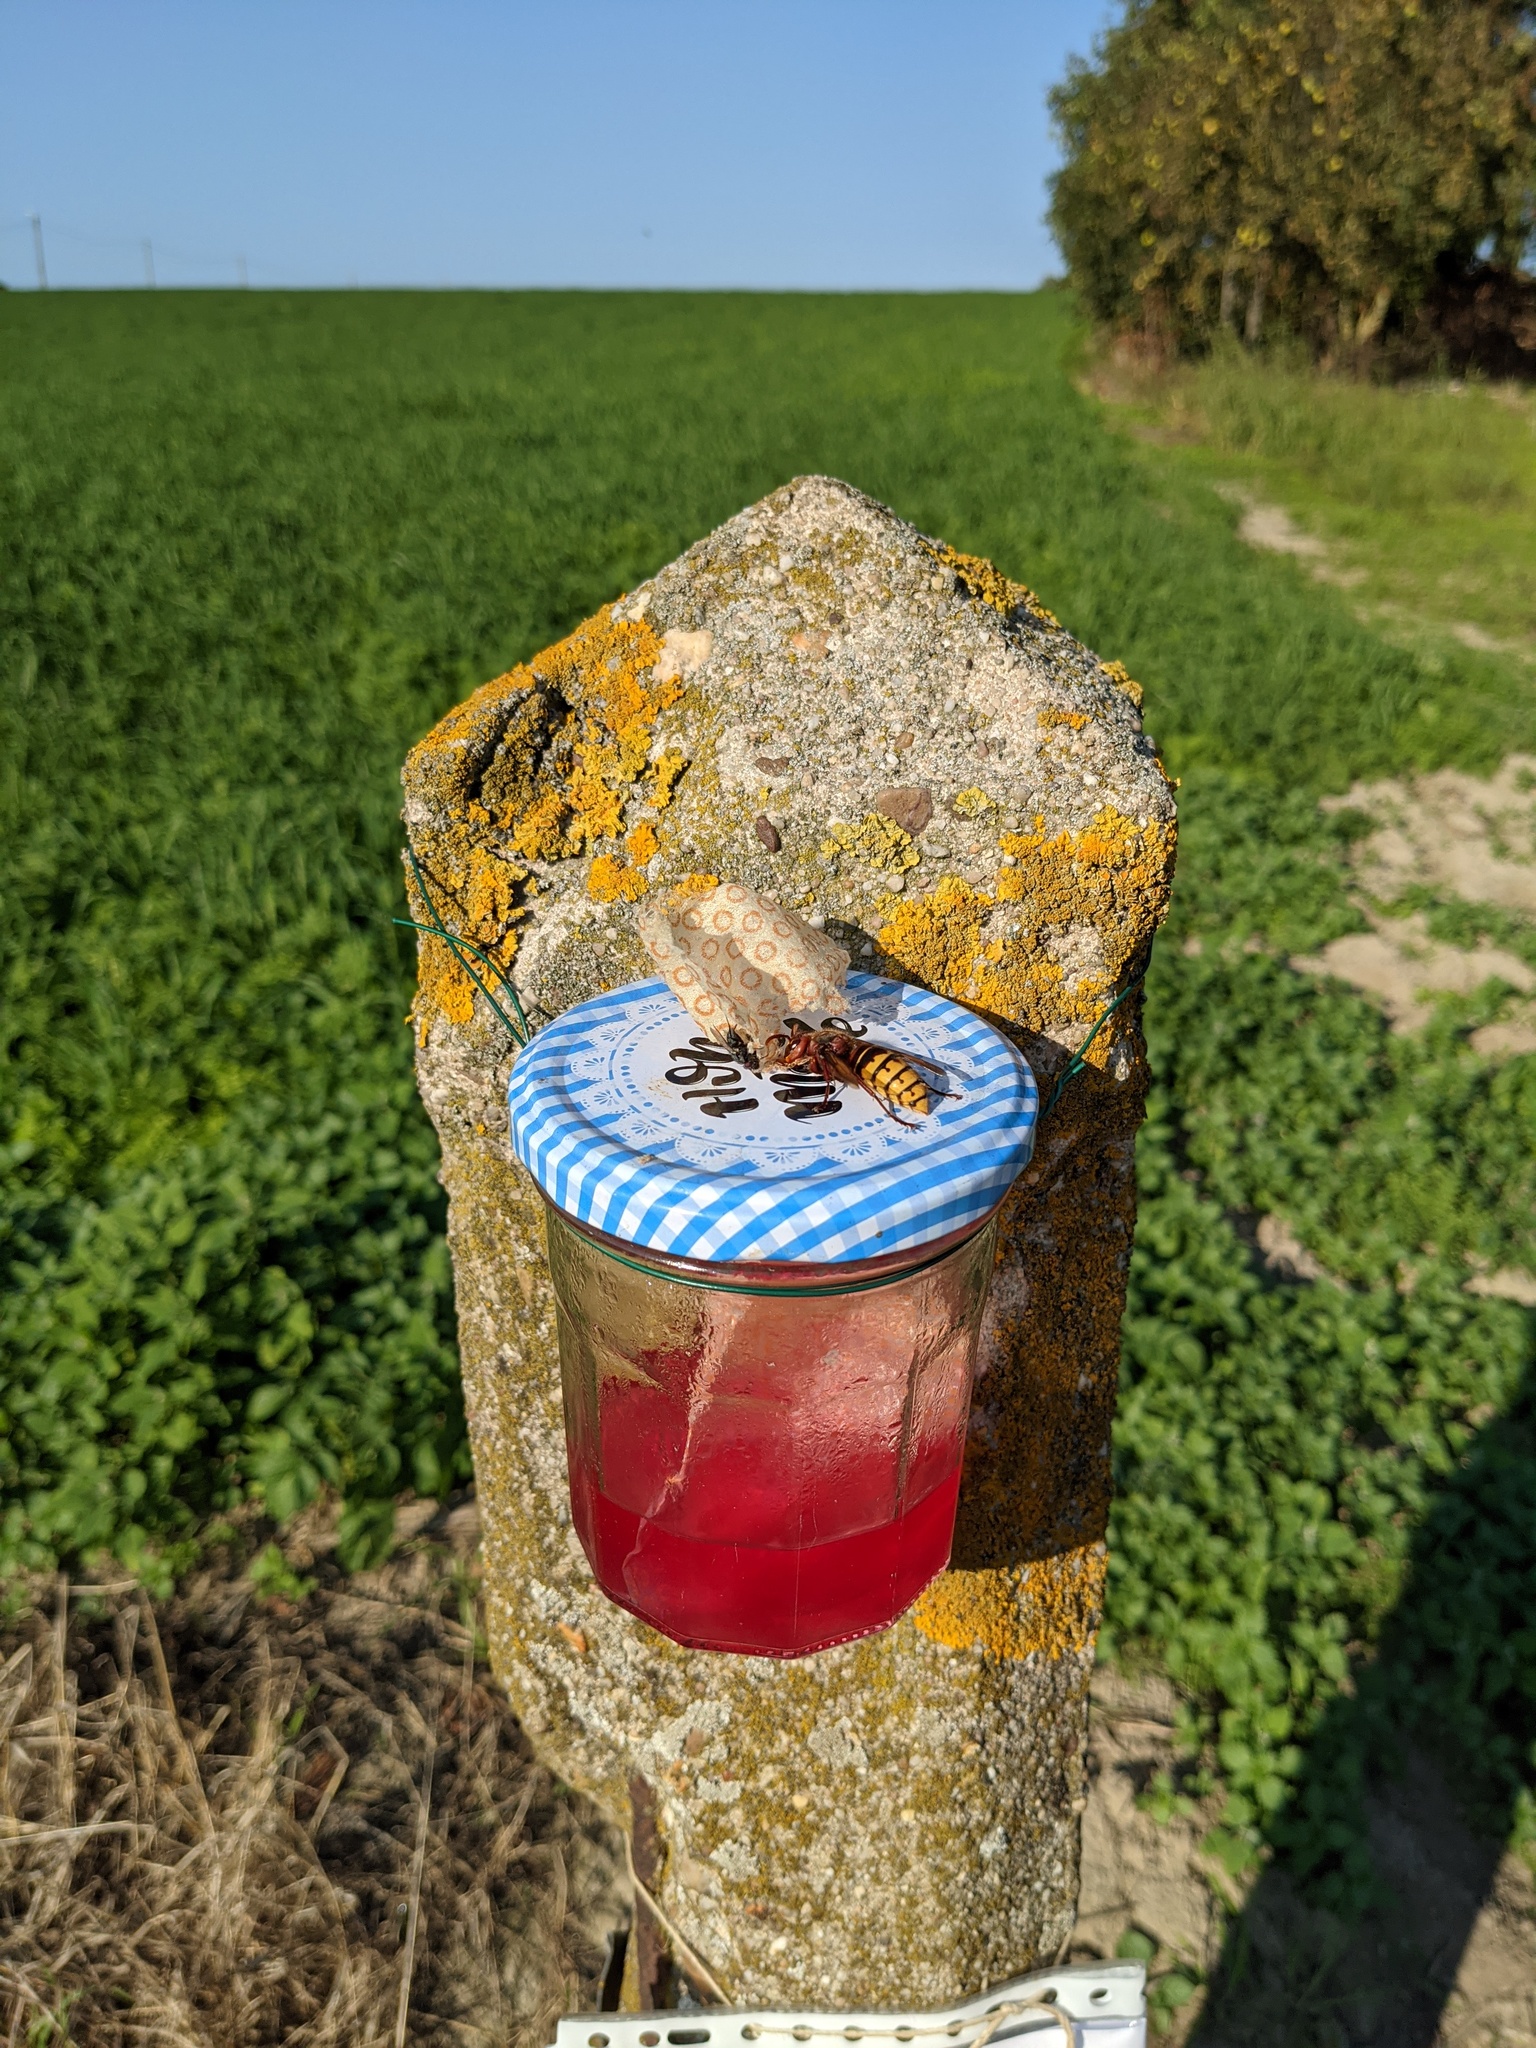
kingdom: Animalia
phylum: Arthropoda
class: Insecta
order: Hymenoptera
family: Vespidae
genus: Vespa
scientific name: Vespa crabro
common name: Hornet
